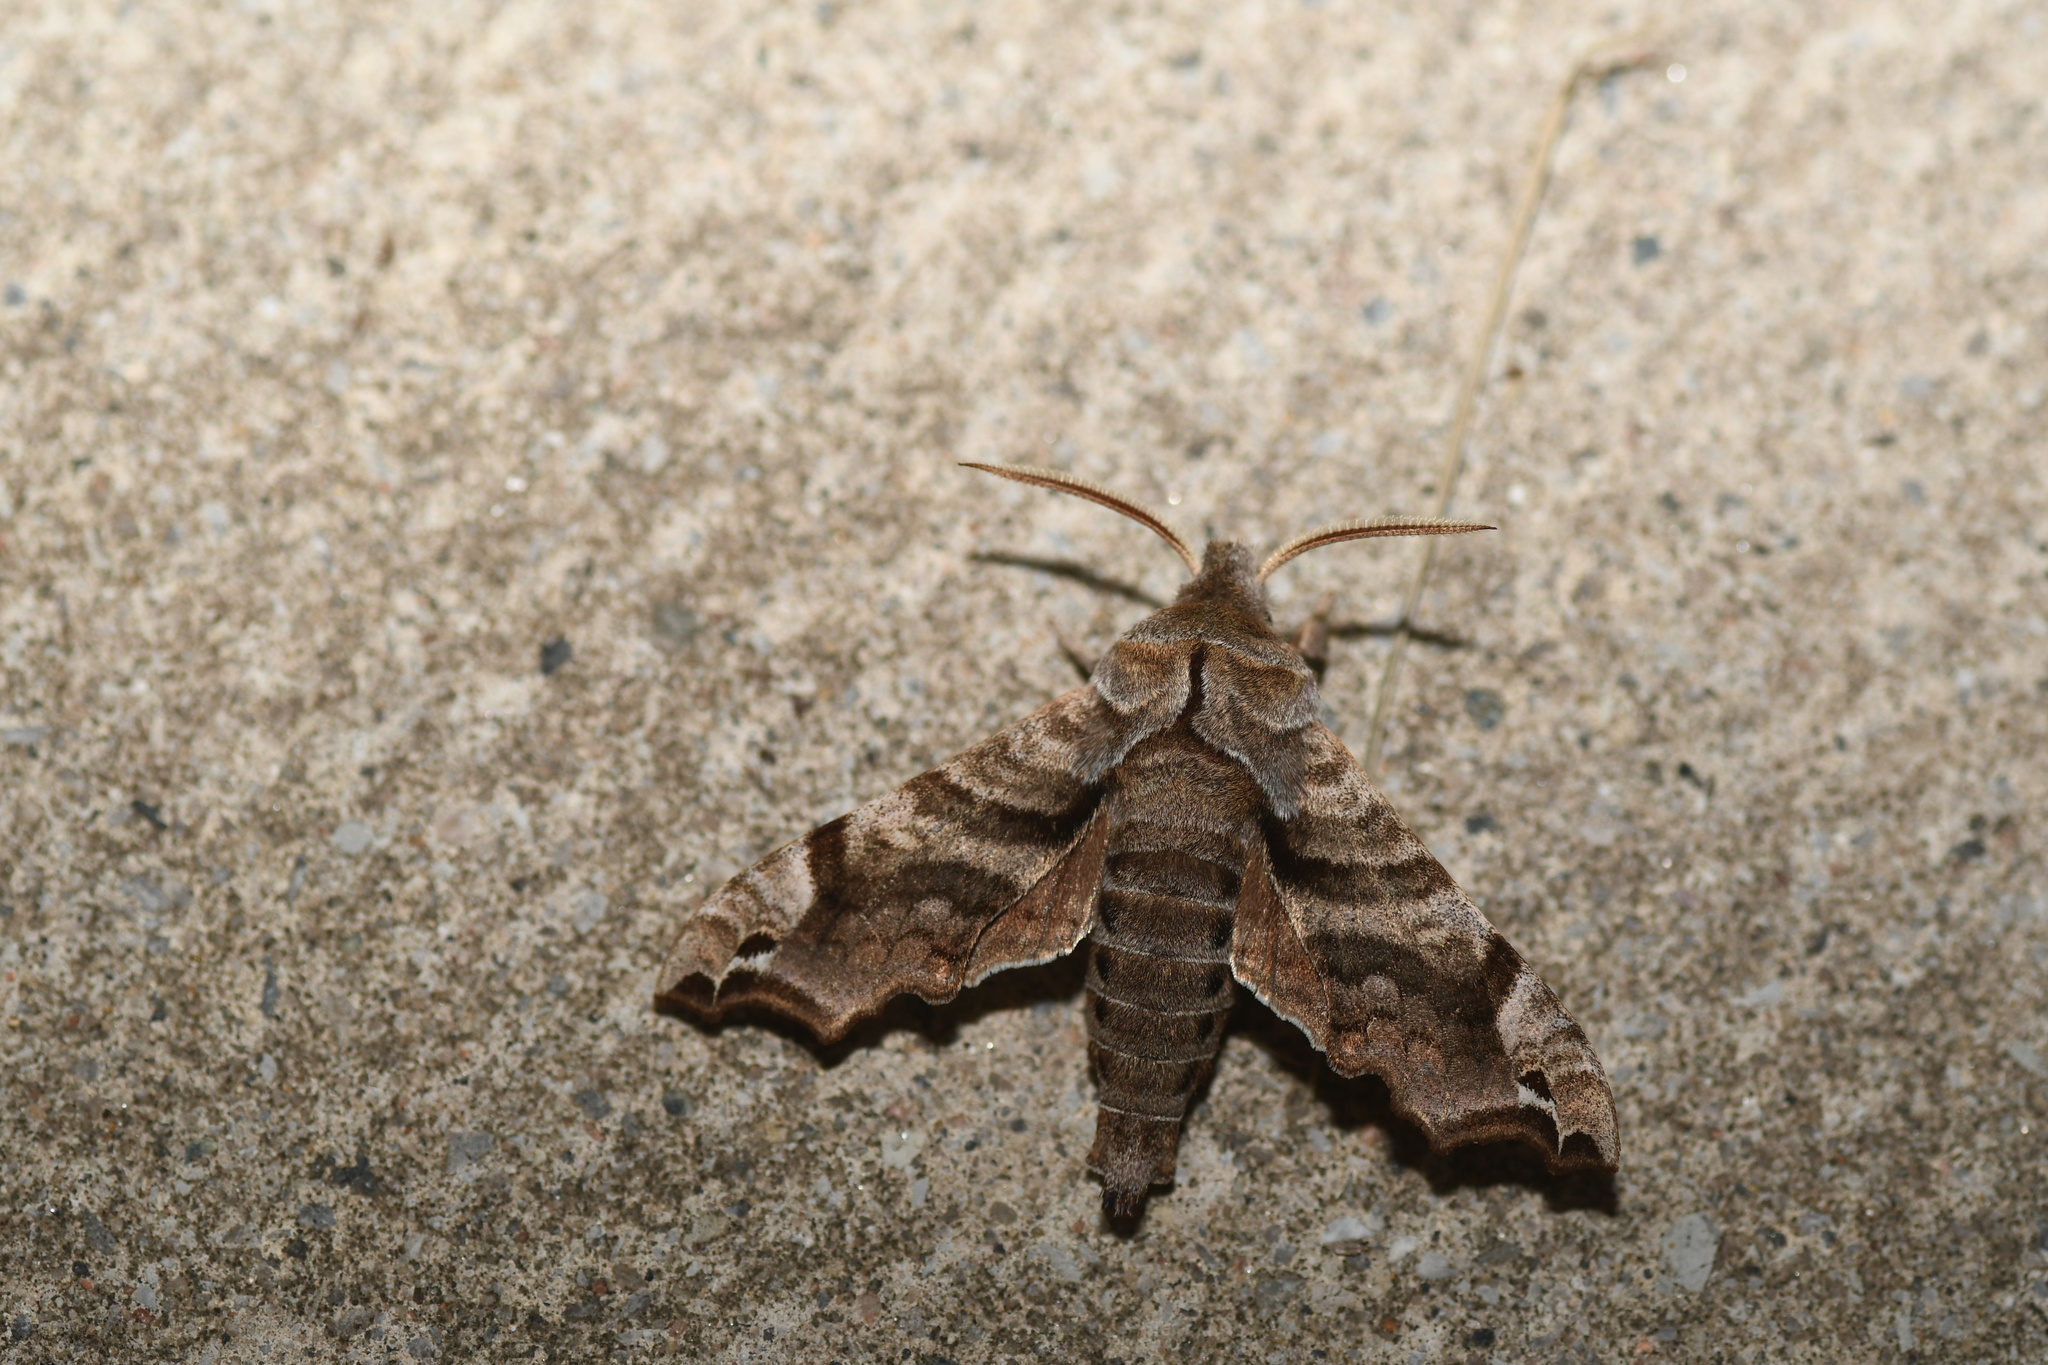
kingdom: Animalia
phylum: Arthropoda
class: Insecta
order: Lepidoptera
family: Sphingidae
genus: Deidamia
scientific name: Deidamia inscriptum
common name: Lettered sphinx
